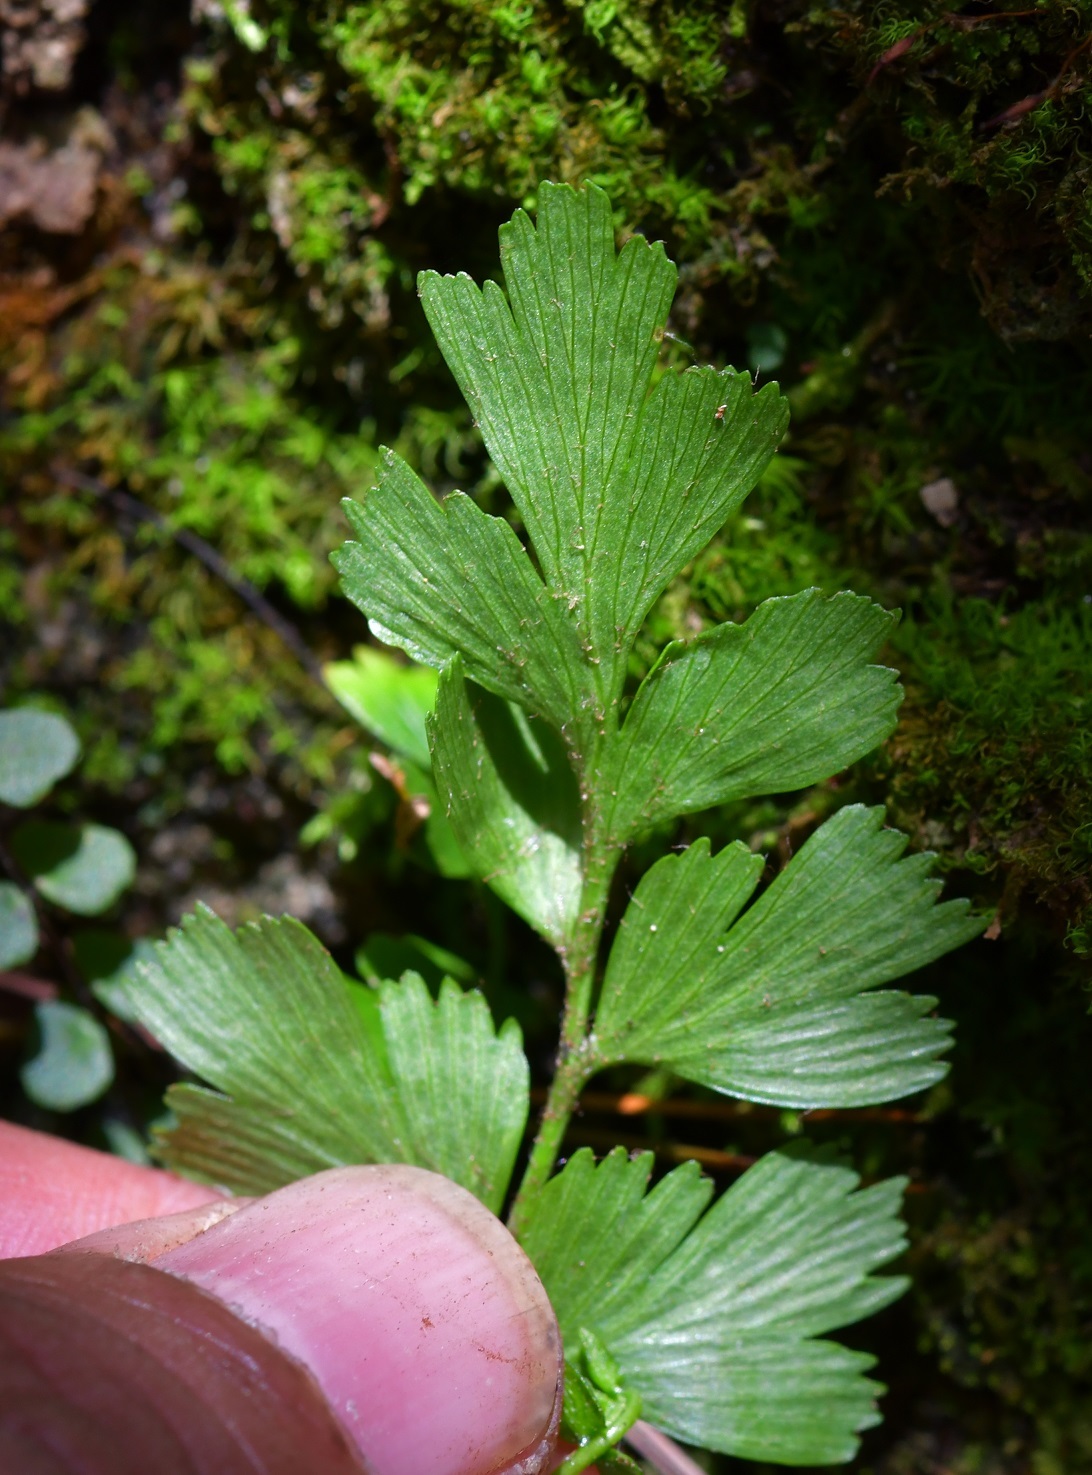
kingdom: Plantae
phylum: Tracheophyta
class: Polypodiopsida
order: Polypodiales
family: Aspleniaceae
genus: Asplenium
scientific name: Asplenium praemorsum
